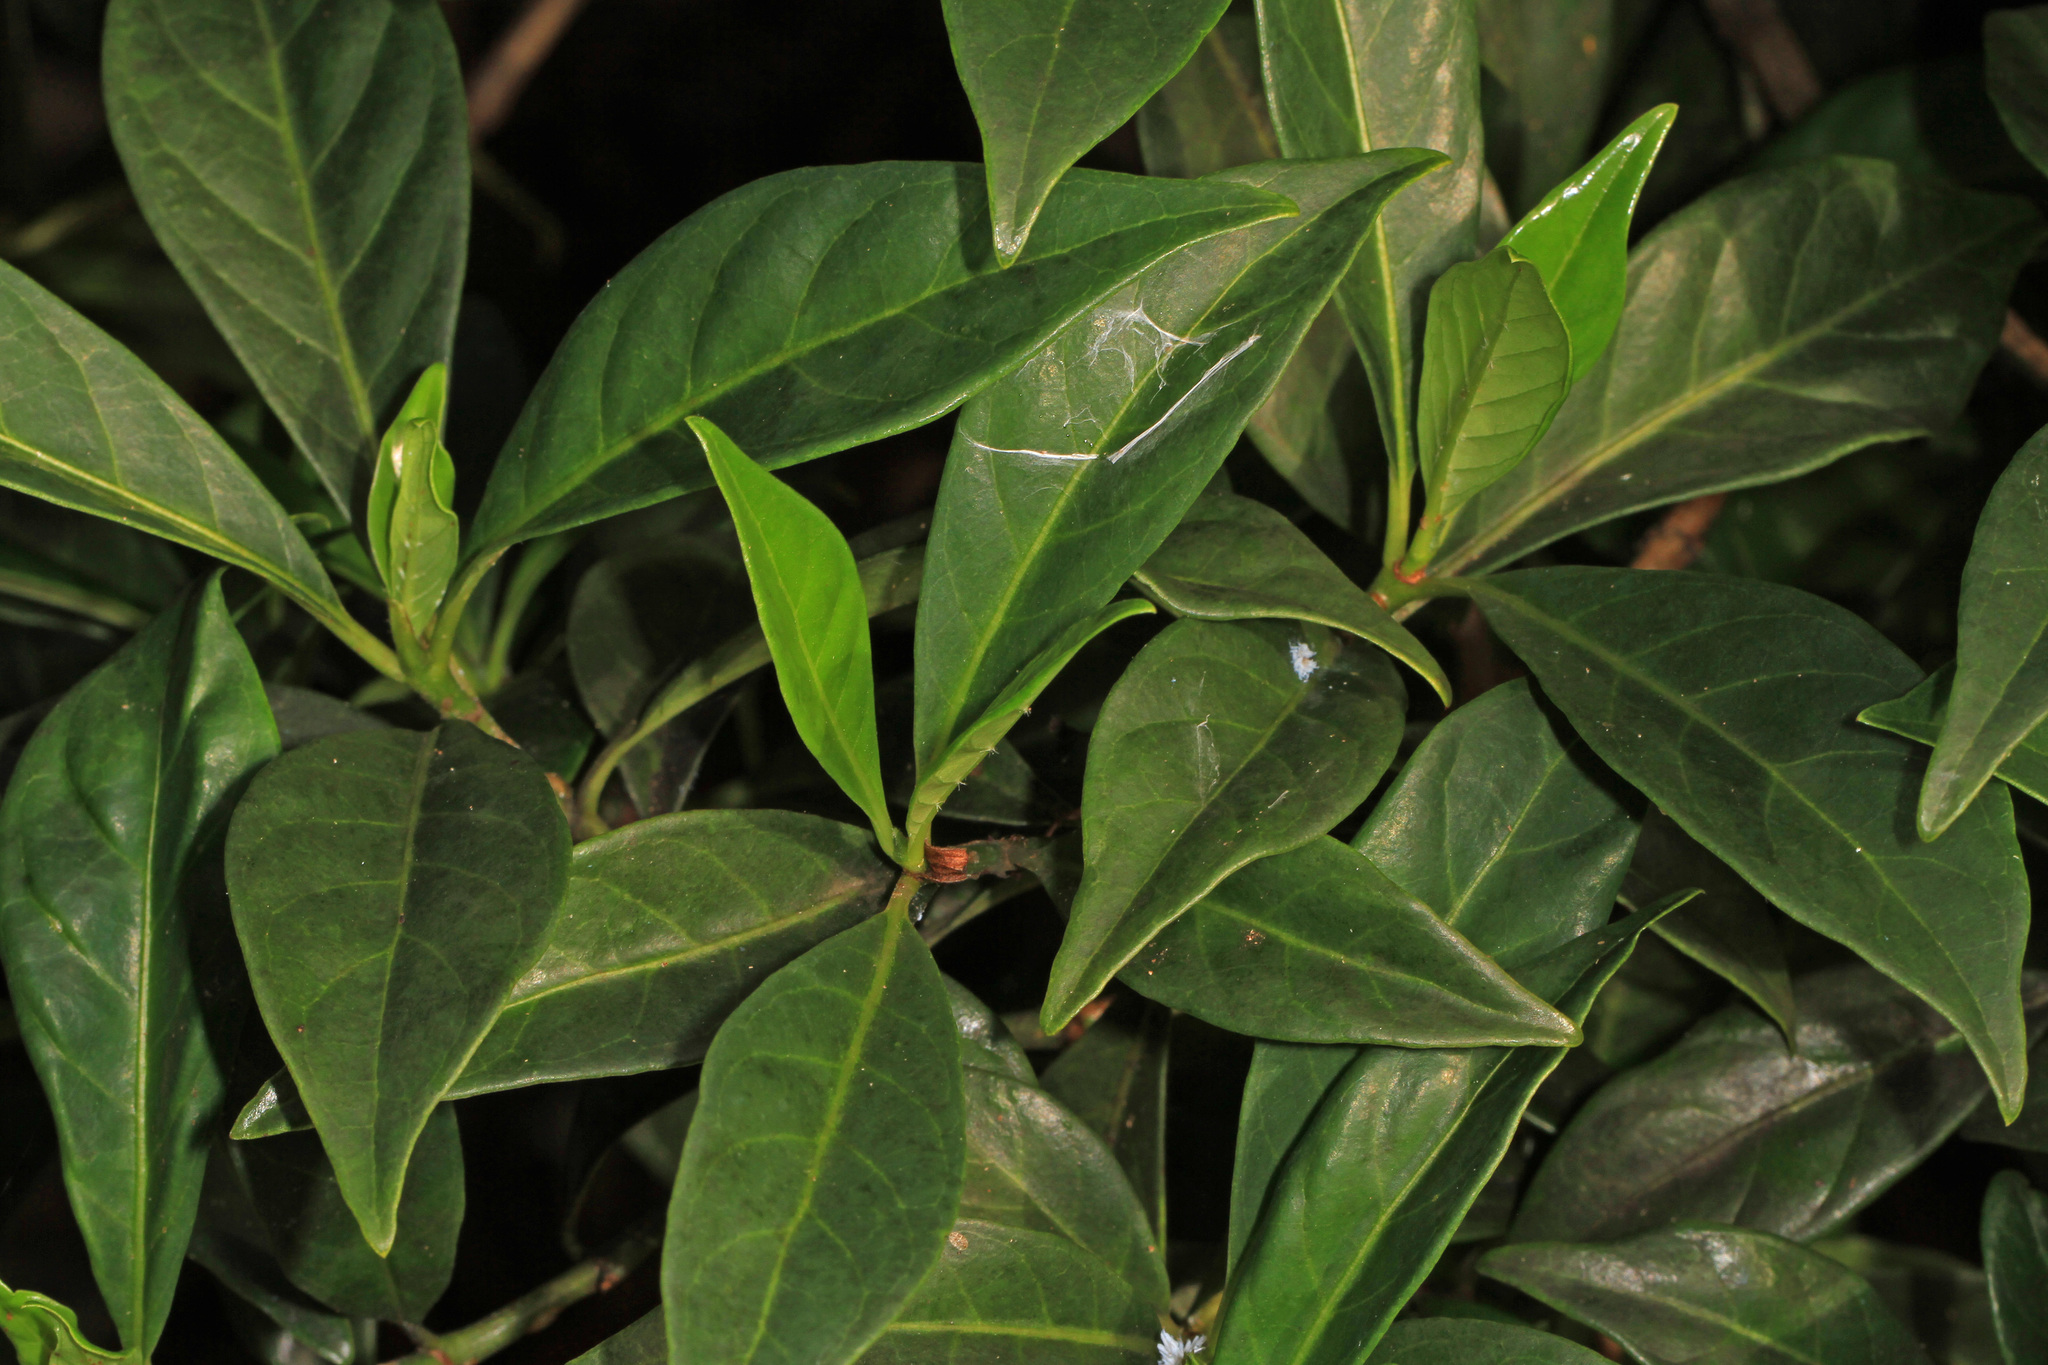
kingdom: Plantae
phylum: Tracheophyta
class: Magnoliopsida
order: Gentianales
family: Rubiaceae
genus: Psychotria
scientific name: Psychotria ligustrifolia
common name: Bahama wild coffee
